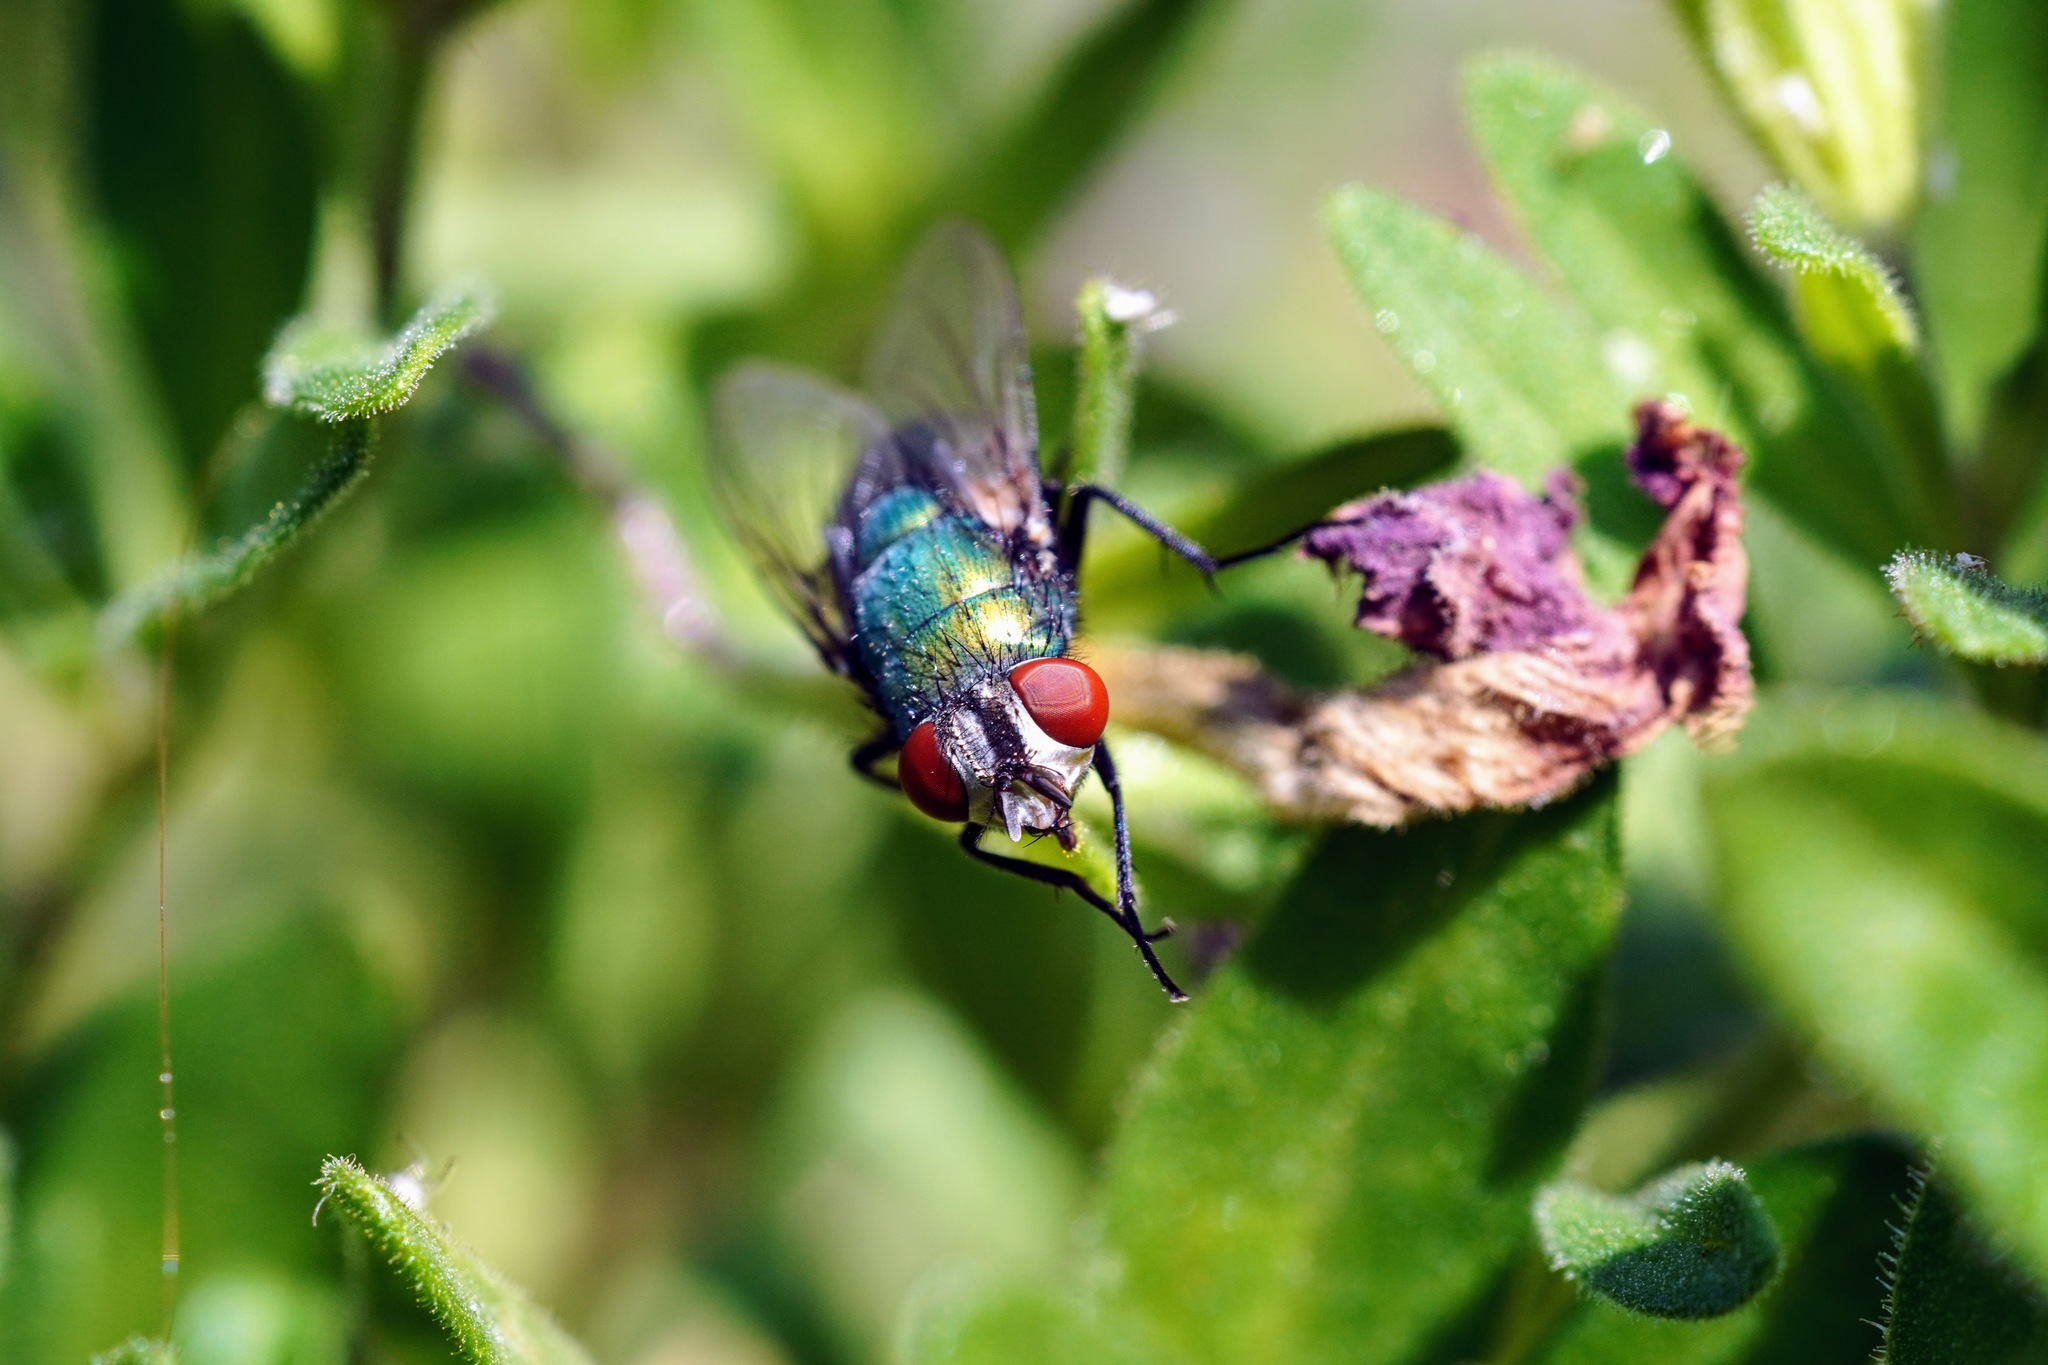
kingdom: Animalia
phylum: Arthropoda
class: Insecta
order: Diptera
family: Calliphoridae
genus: Lucilia
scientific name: Lucilia sericata
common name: Blow fly
